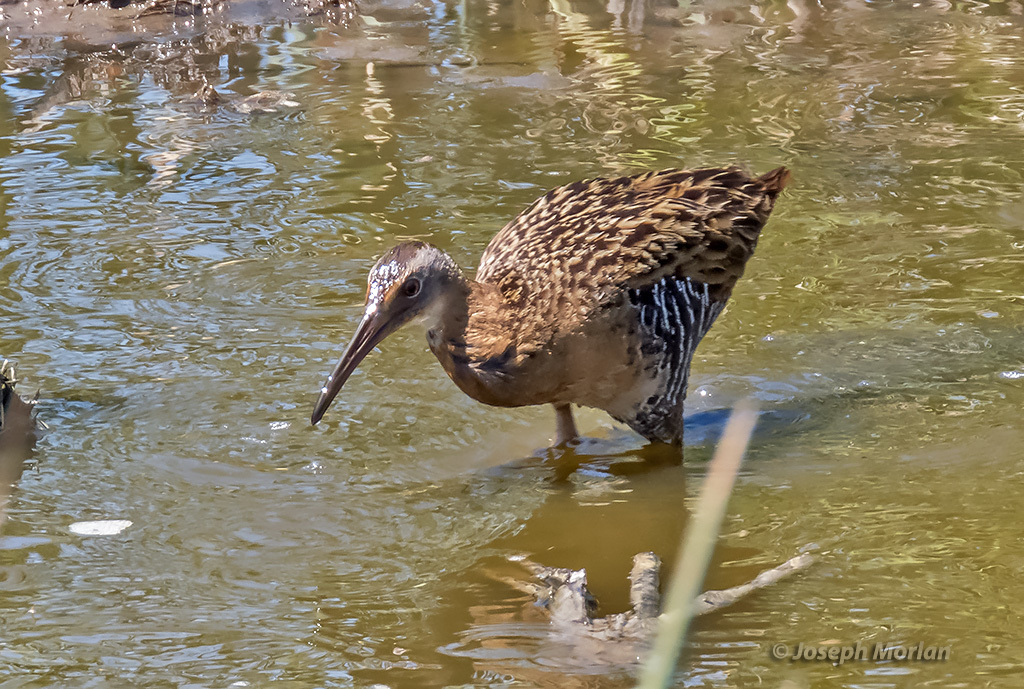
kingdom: Animalia
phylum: Chordata
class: Aves
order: Gruiformes
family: Rallidae
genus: Rallus
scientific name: Rallus elegans
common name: King rail
